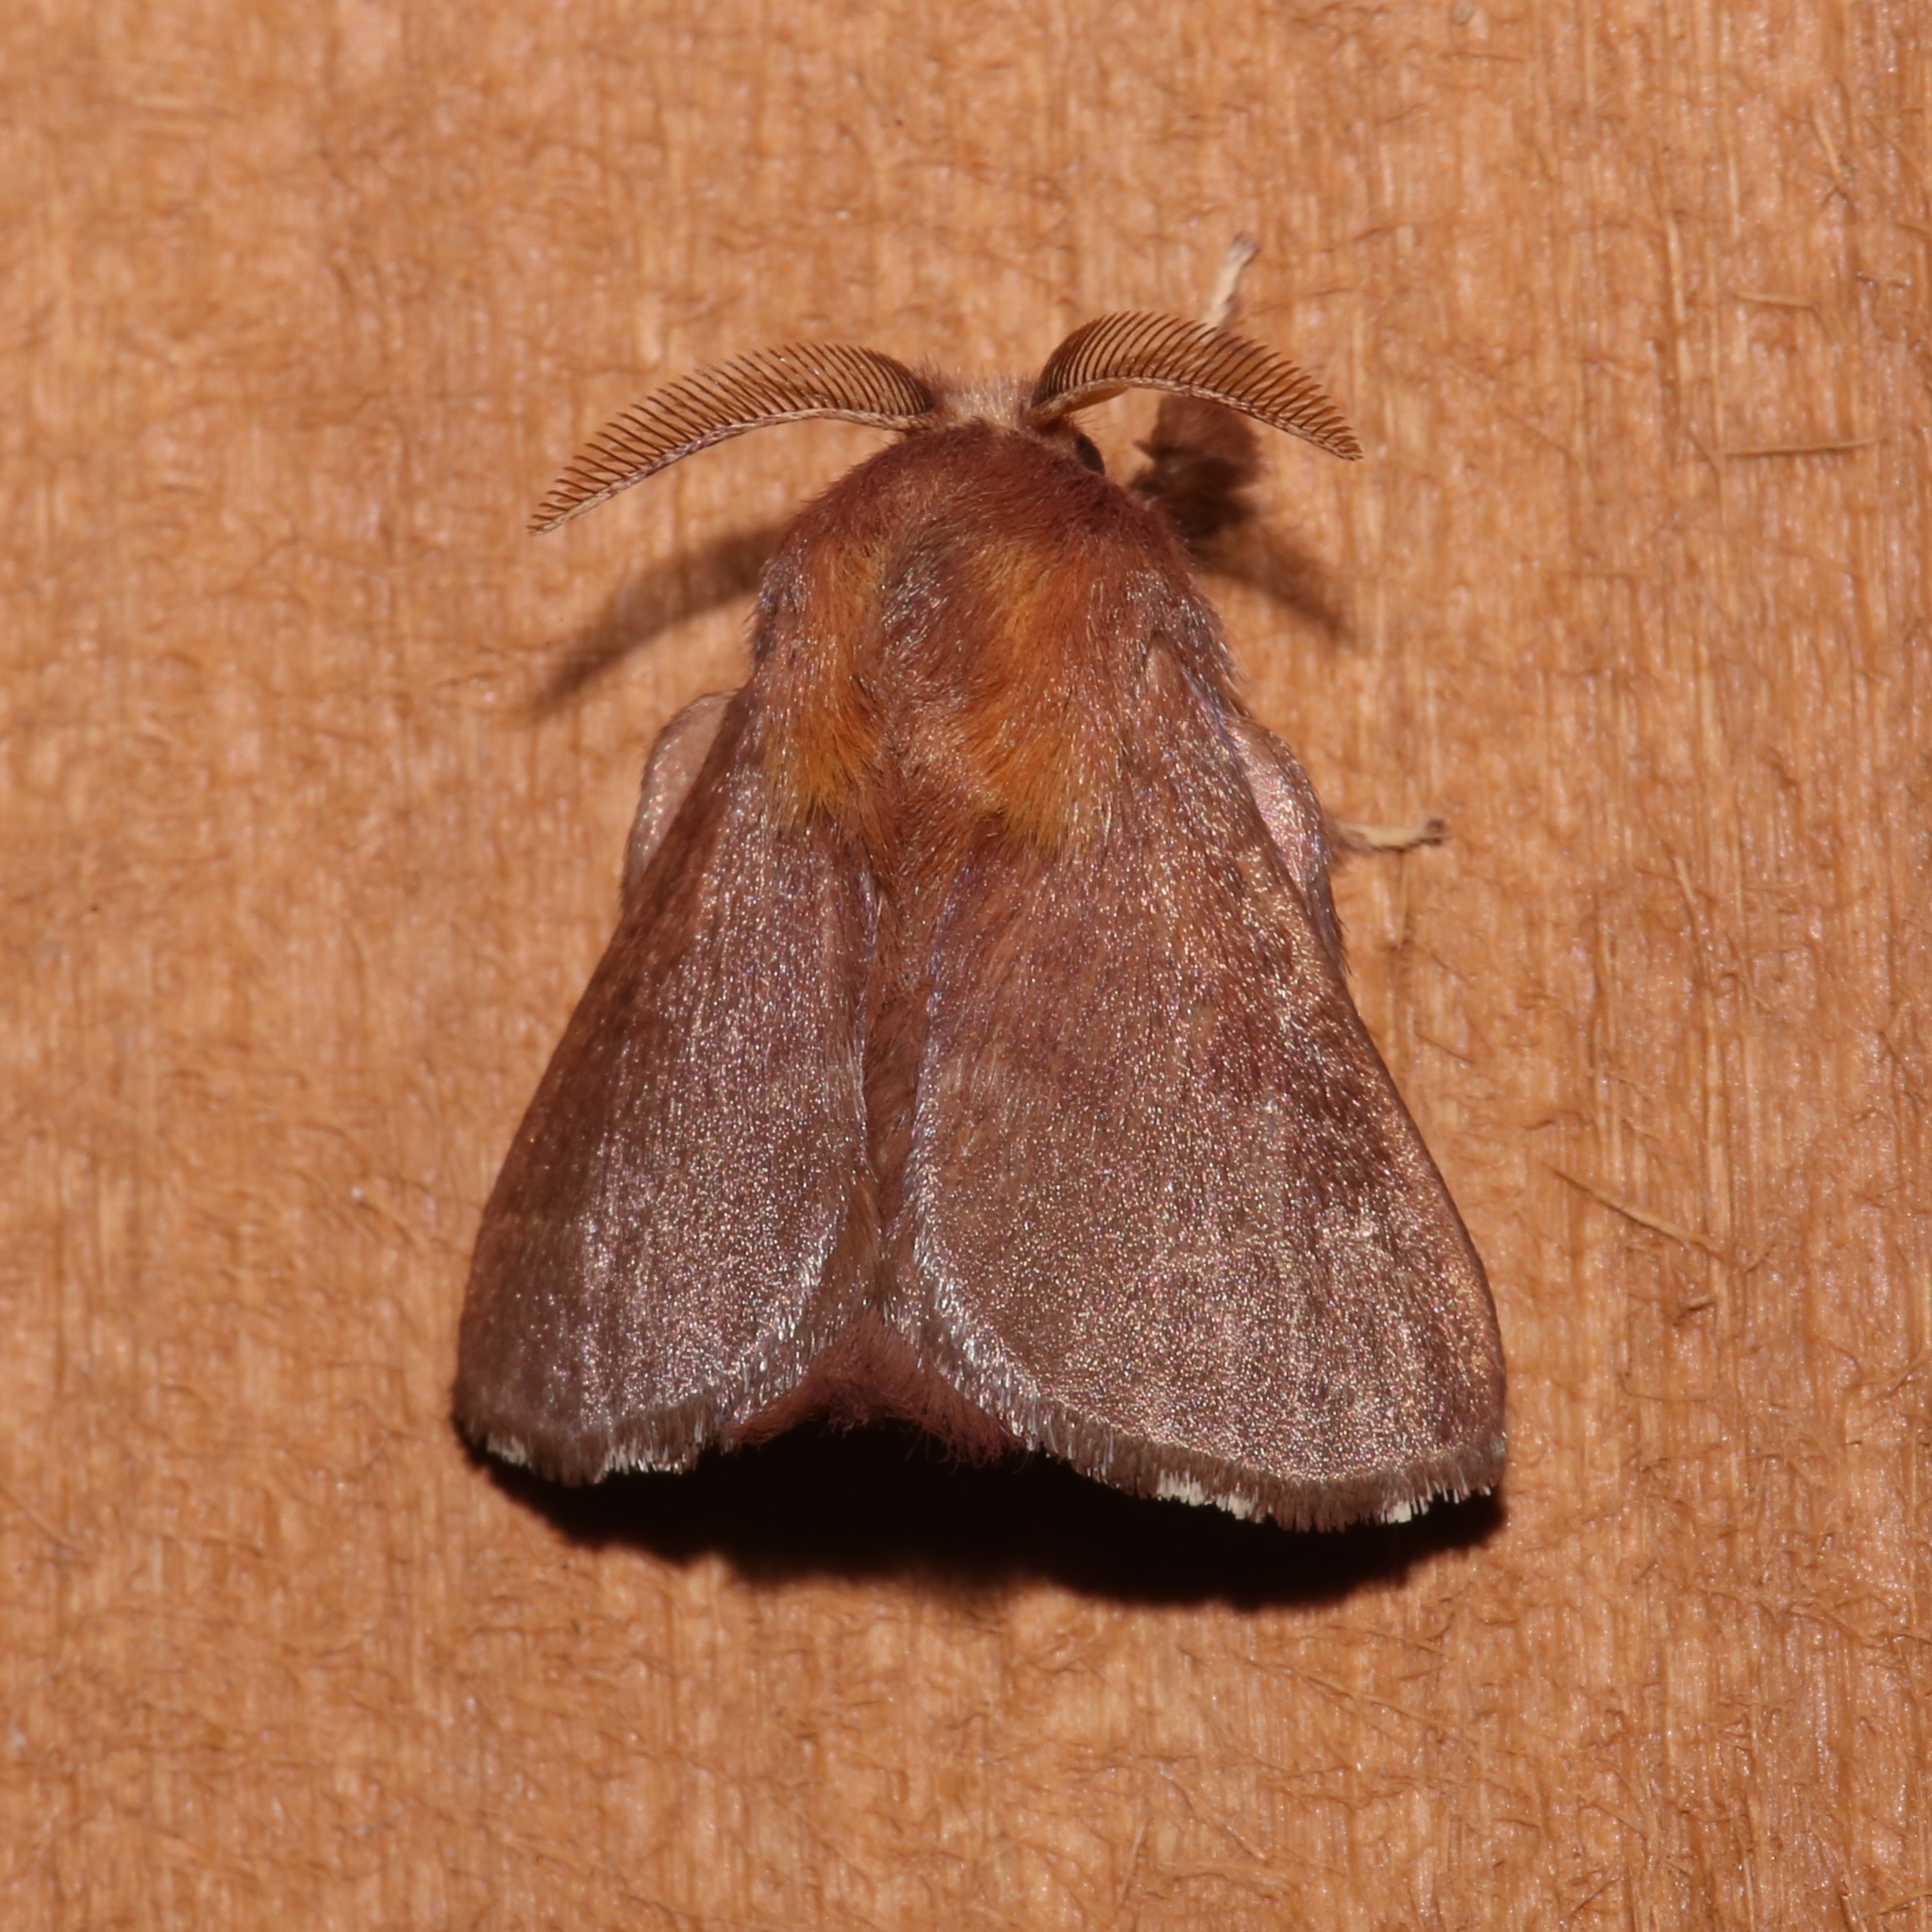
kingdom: Animalia
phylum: Arthropoda
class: Insecta
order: Lepidoptera
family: Lasiocampidae
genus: Malacosoma
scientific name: Malacosoma disstria
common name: Forest tent caterpillar
